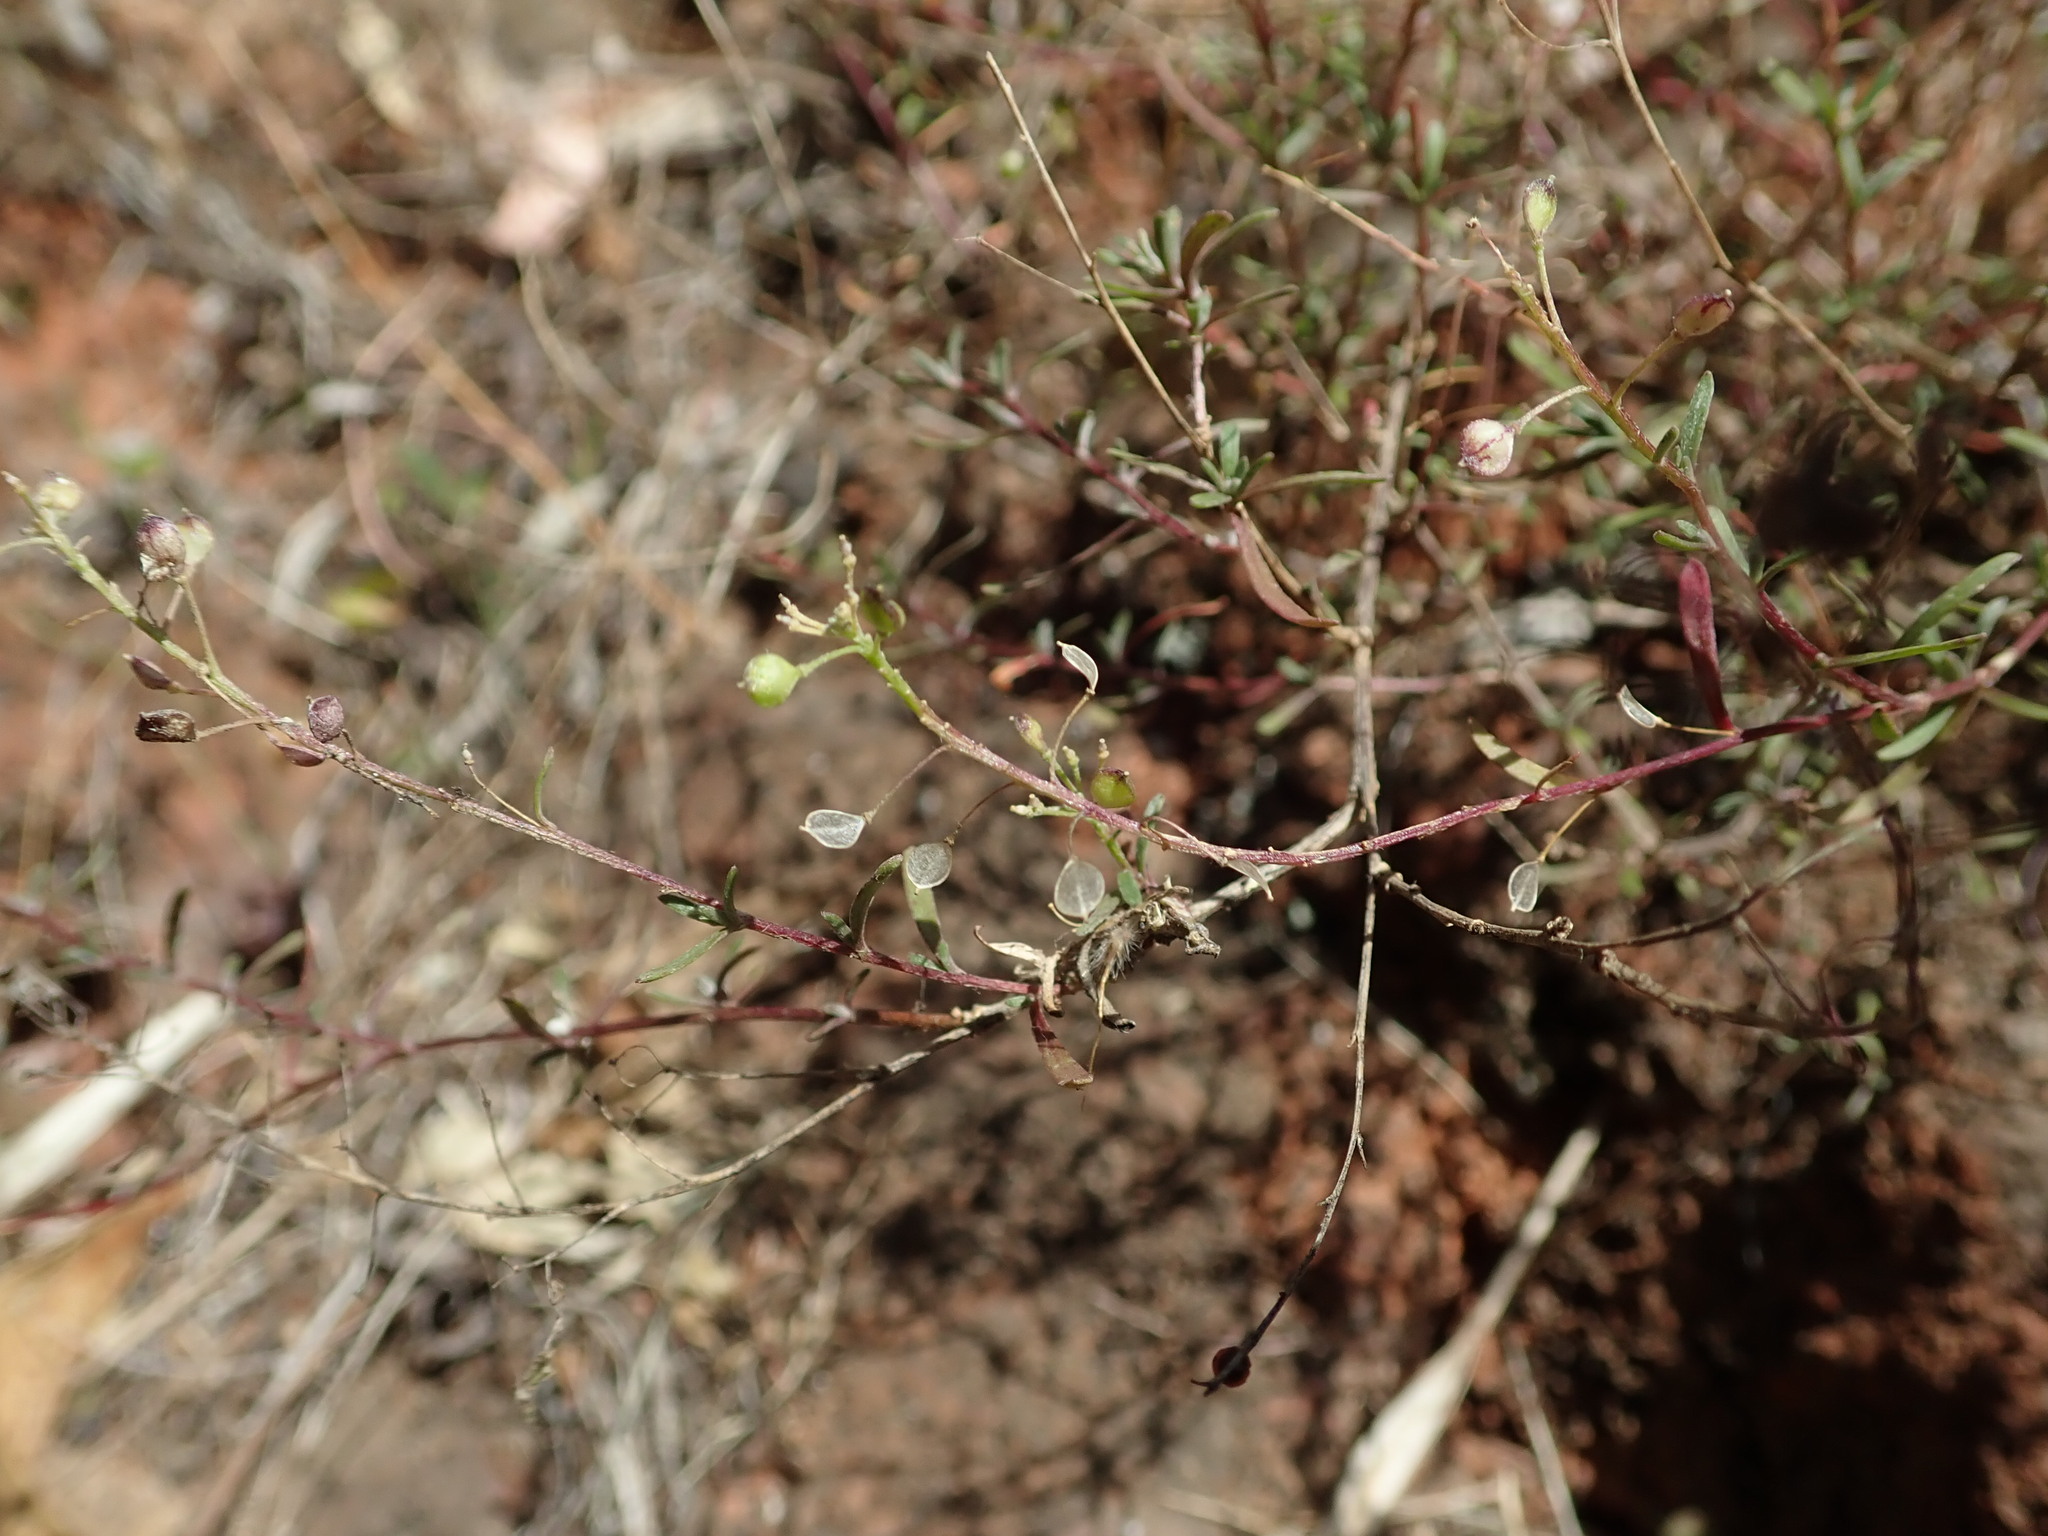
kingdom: Plantae
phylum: Tracheophyta
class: Magnoliopsida
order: Brassicales
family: Brassicaceae
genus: Lobularia
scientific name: Lobularia canariensis
